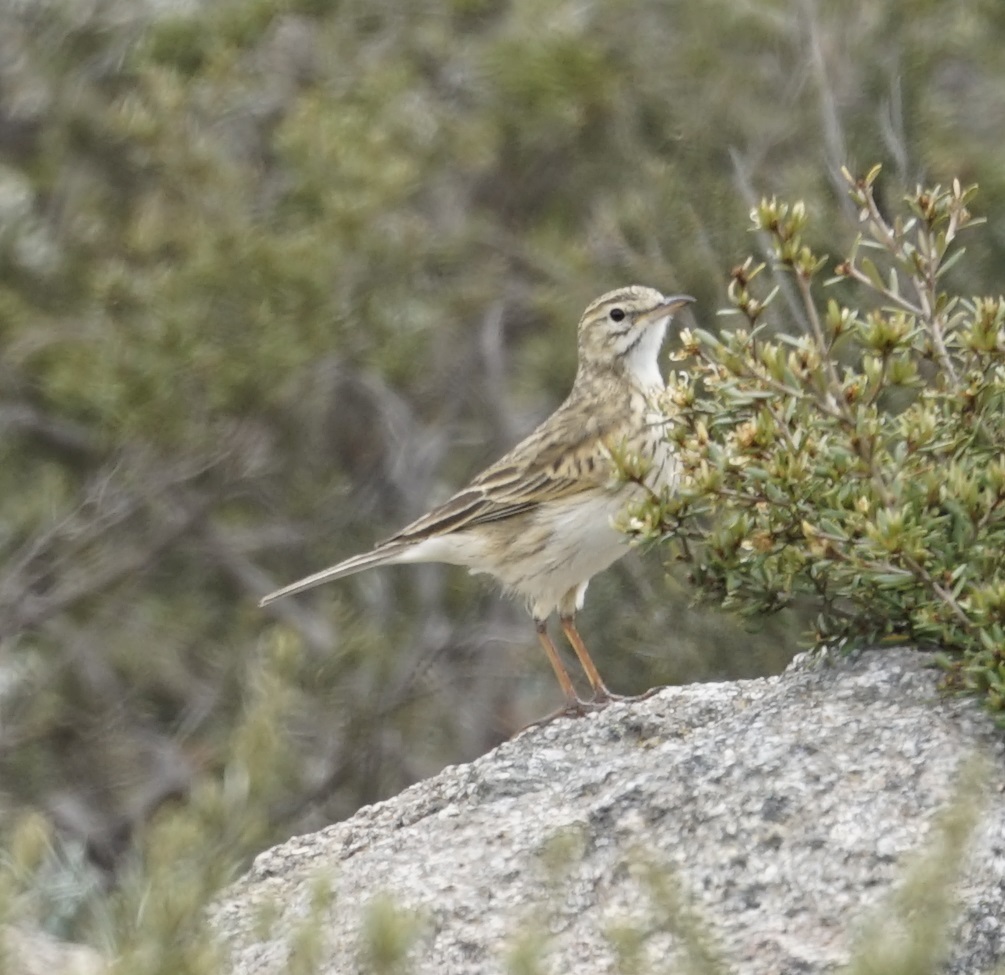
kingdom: Animalia
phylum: Chordata
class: Aves
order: Passeriformes
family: Motacillidae
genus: Anthus
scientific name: Anthus australis
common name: Australian pipit
